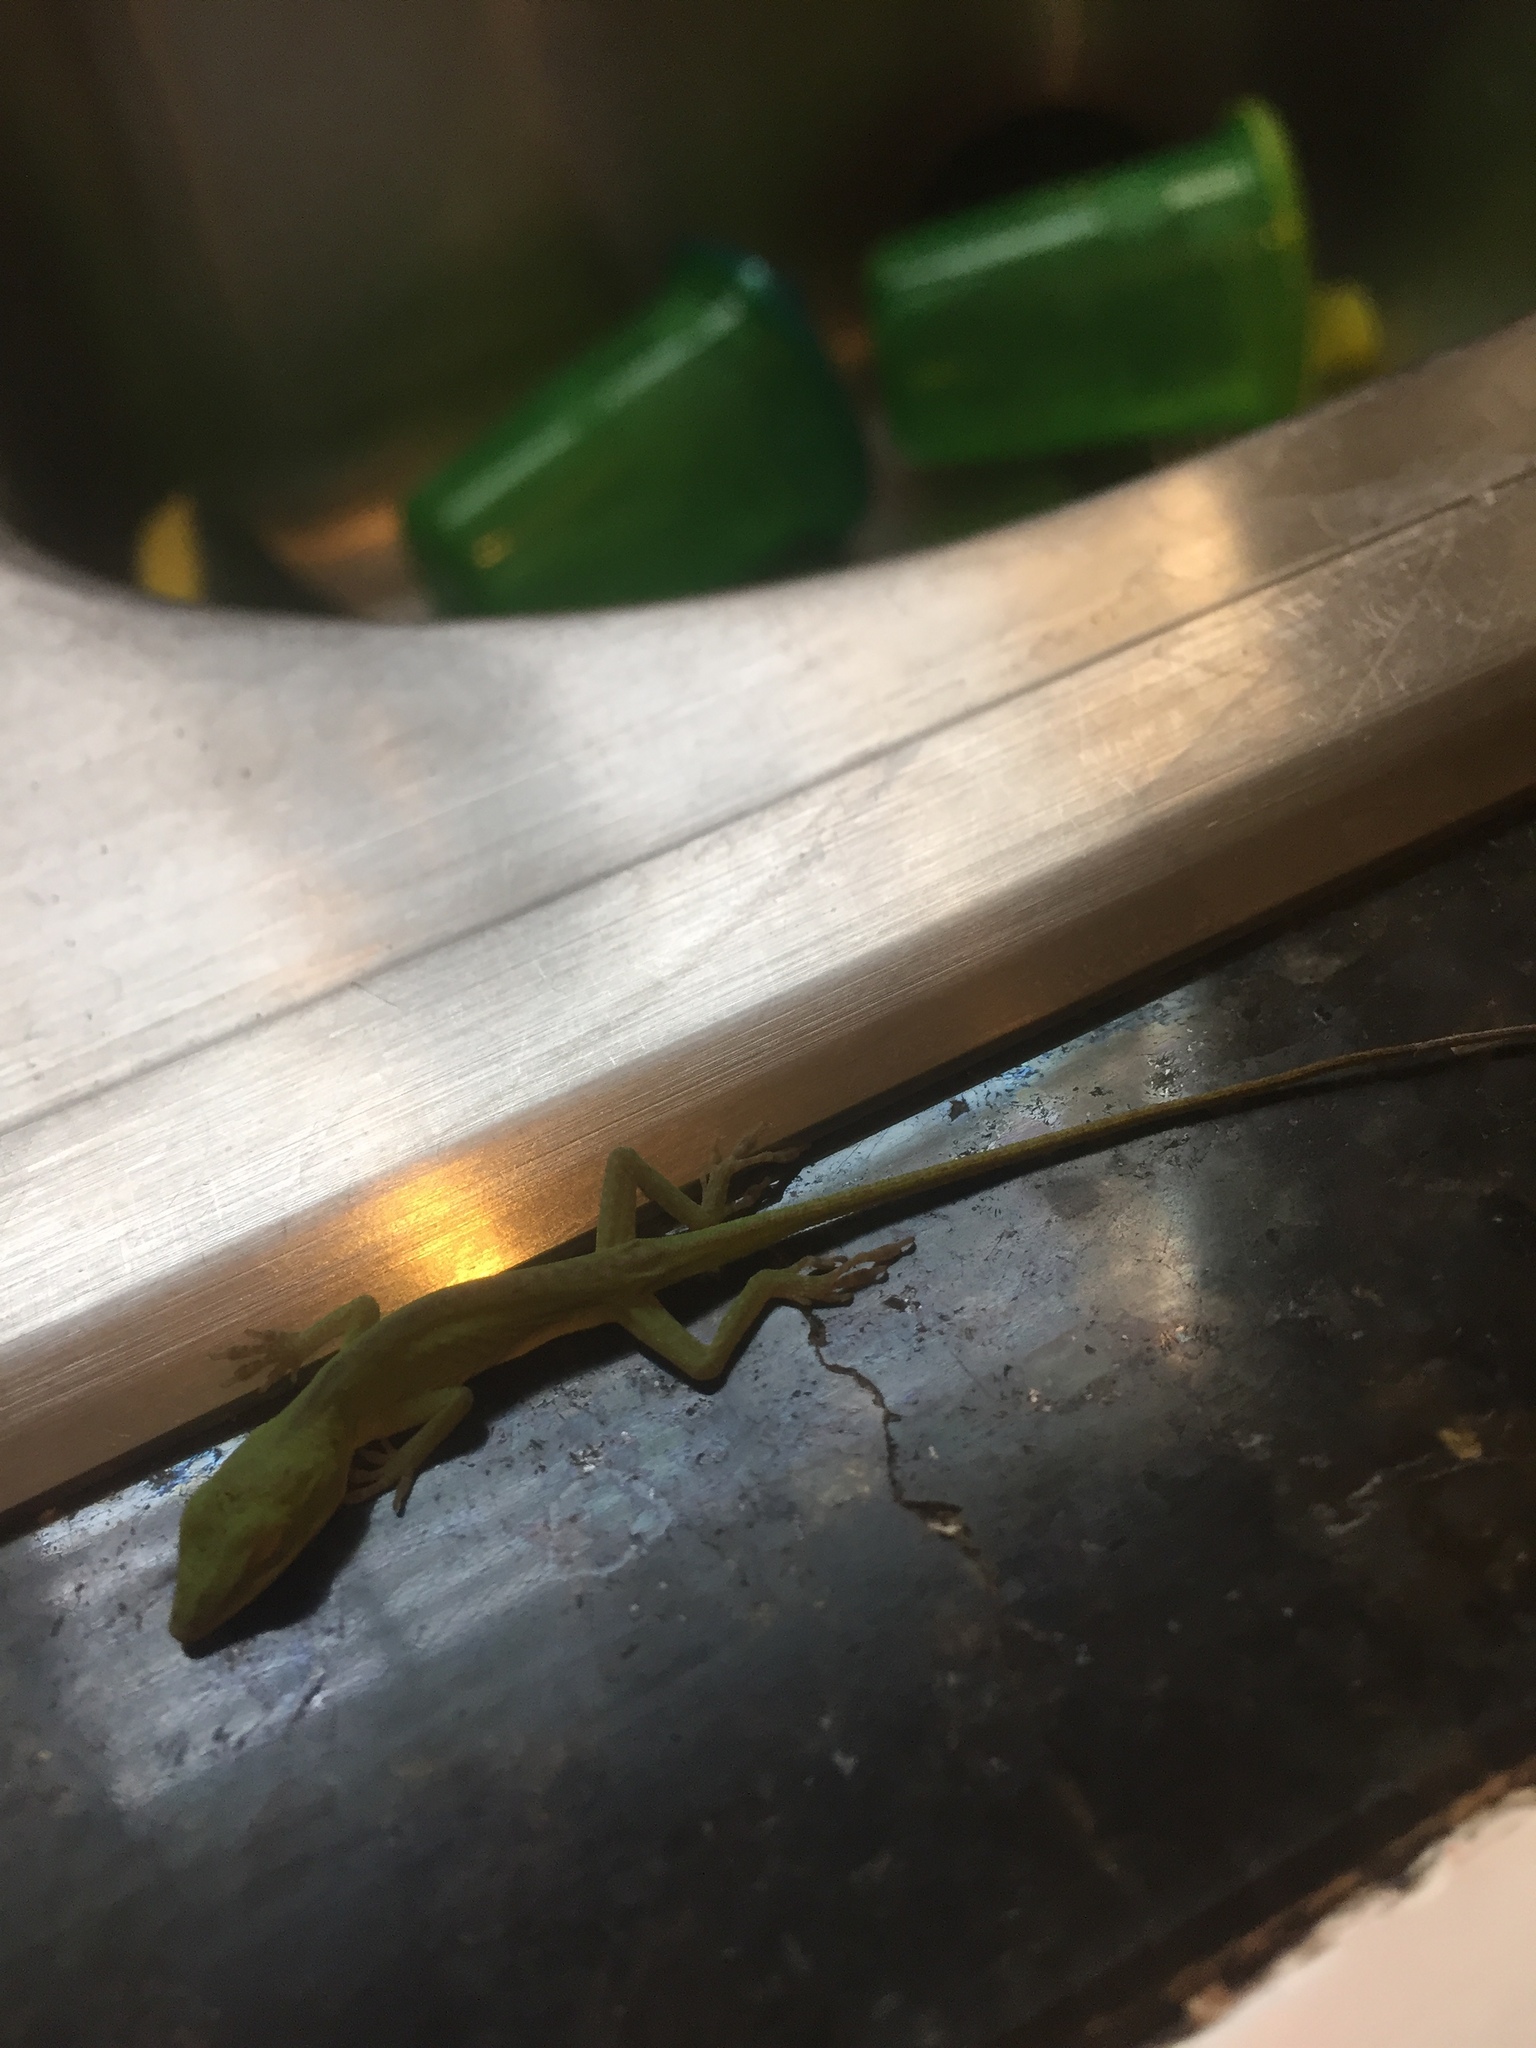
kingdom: Animalia
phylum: Chordata
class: Squamata
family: Dactyloidae
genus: Anolis
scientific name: Anolis carolinensis
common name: Green anole
